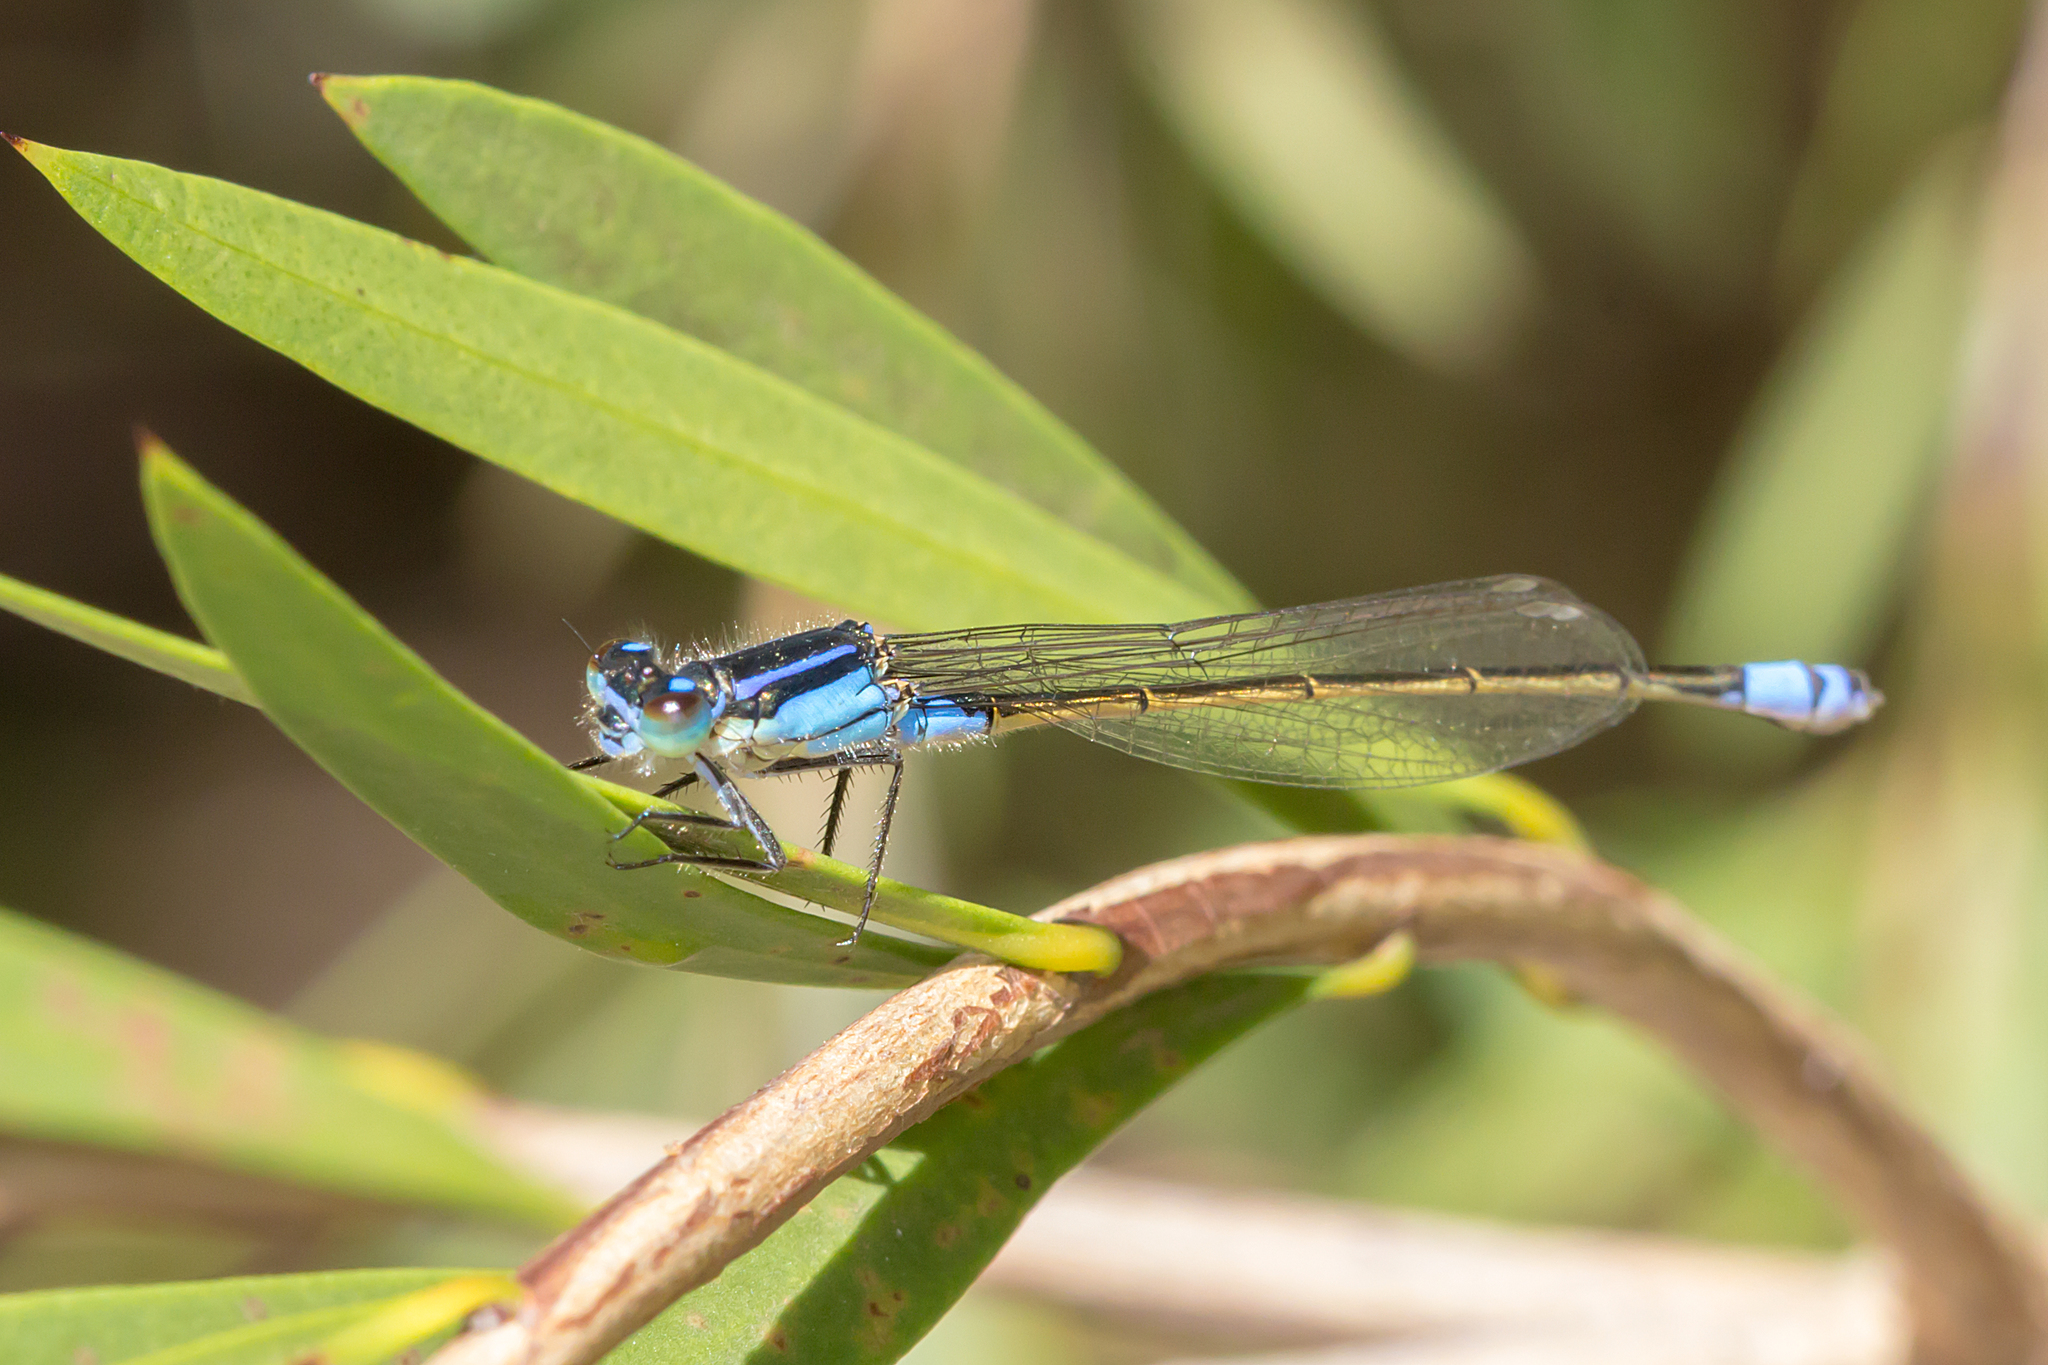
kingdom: Animalia
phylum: Arthropoda
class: Insecta
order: Odonata
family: Coenagrionidae
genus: Ischnura
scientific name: Ischnura heterosticta
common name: Common bluetail
